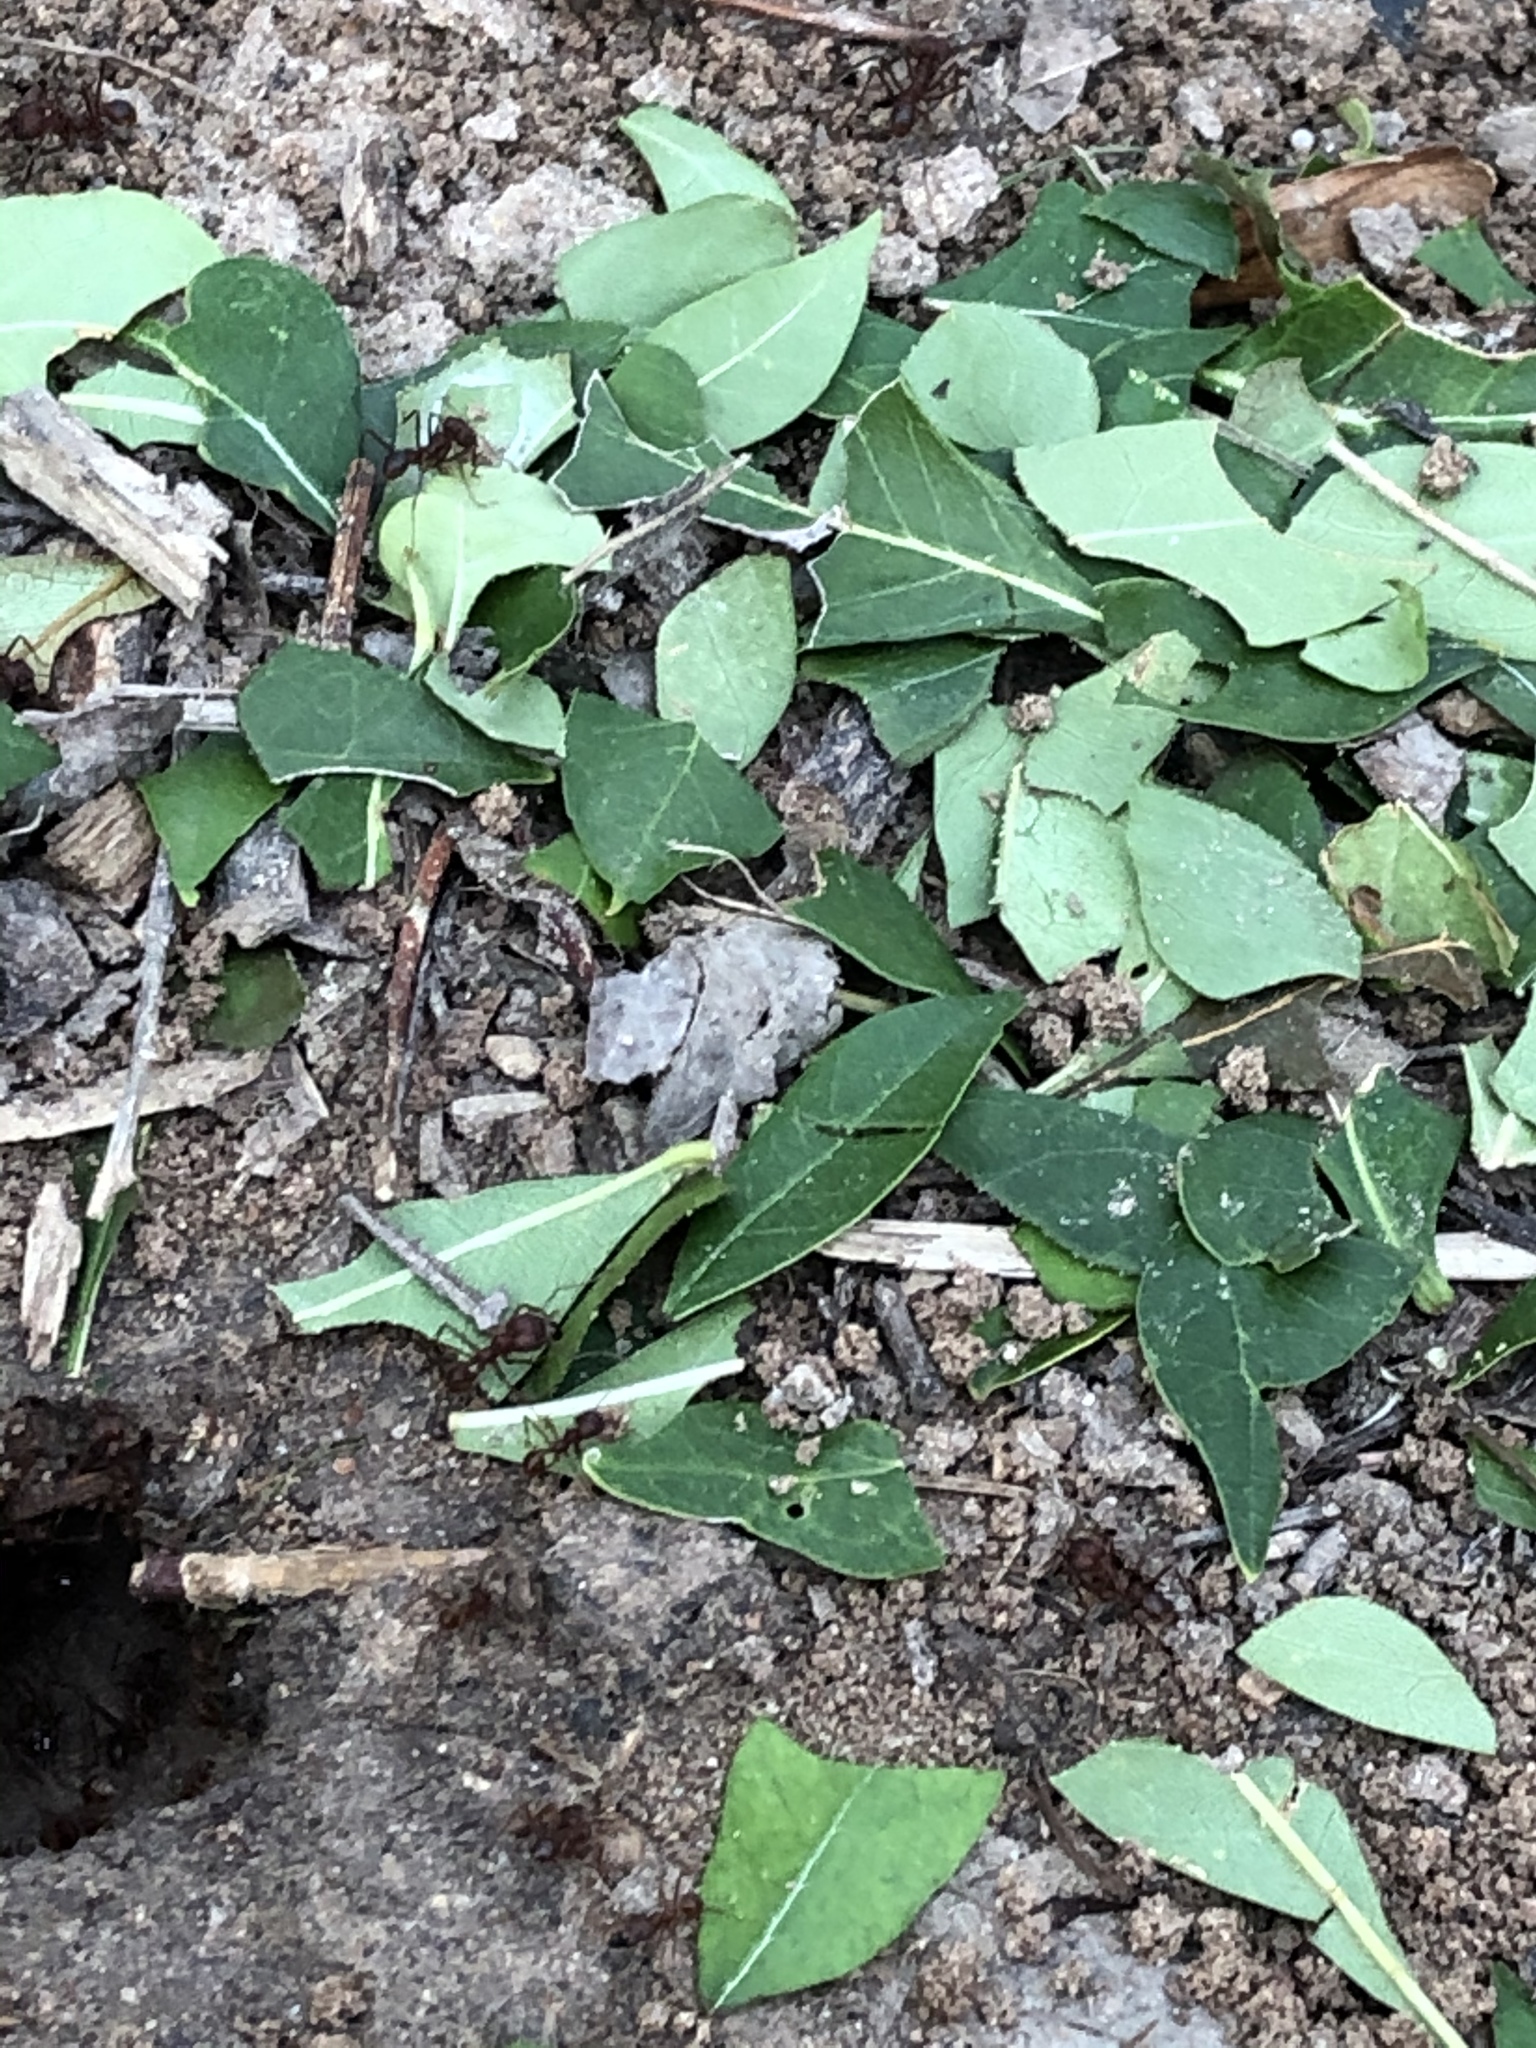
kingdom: Animalia
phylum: Arthropoda
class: Insecta
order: Hymenoptera
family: Formicidae
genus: Atta
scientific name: Atta texana
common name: Texas leafcutting ant
